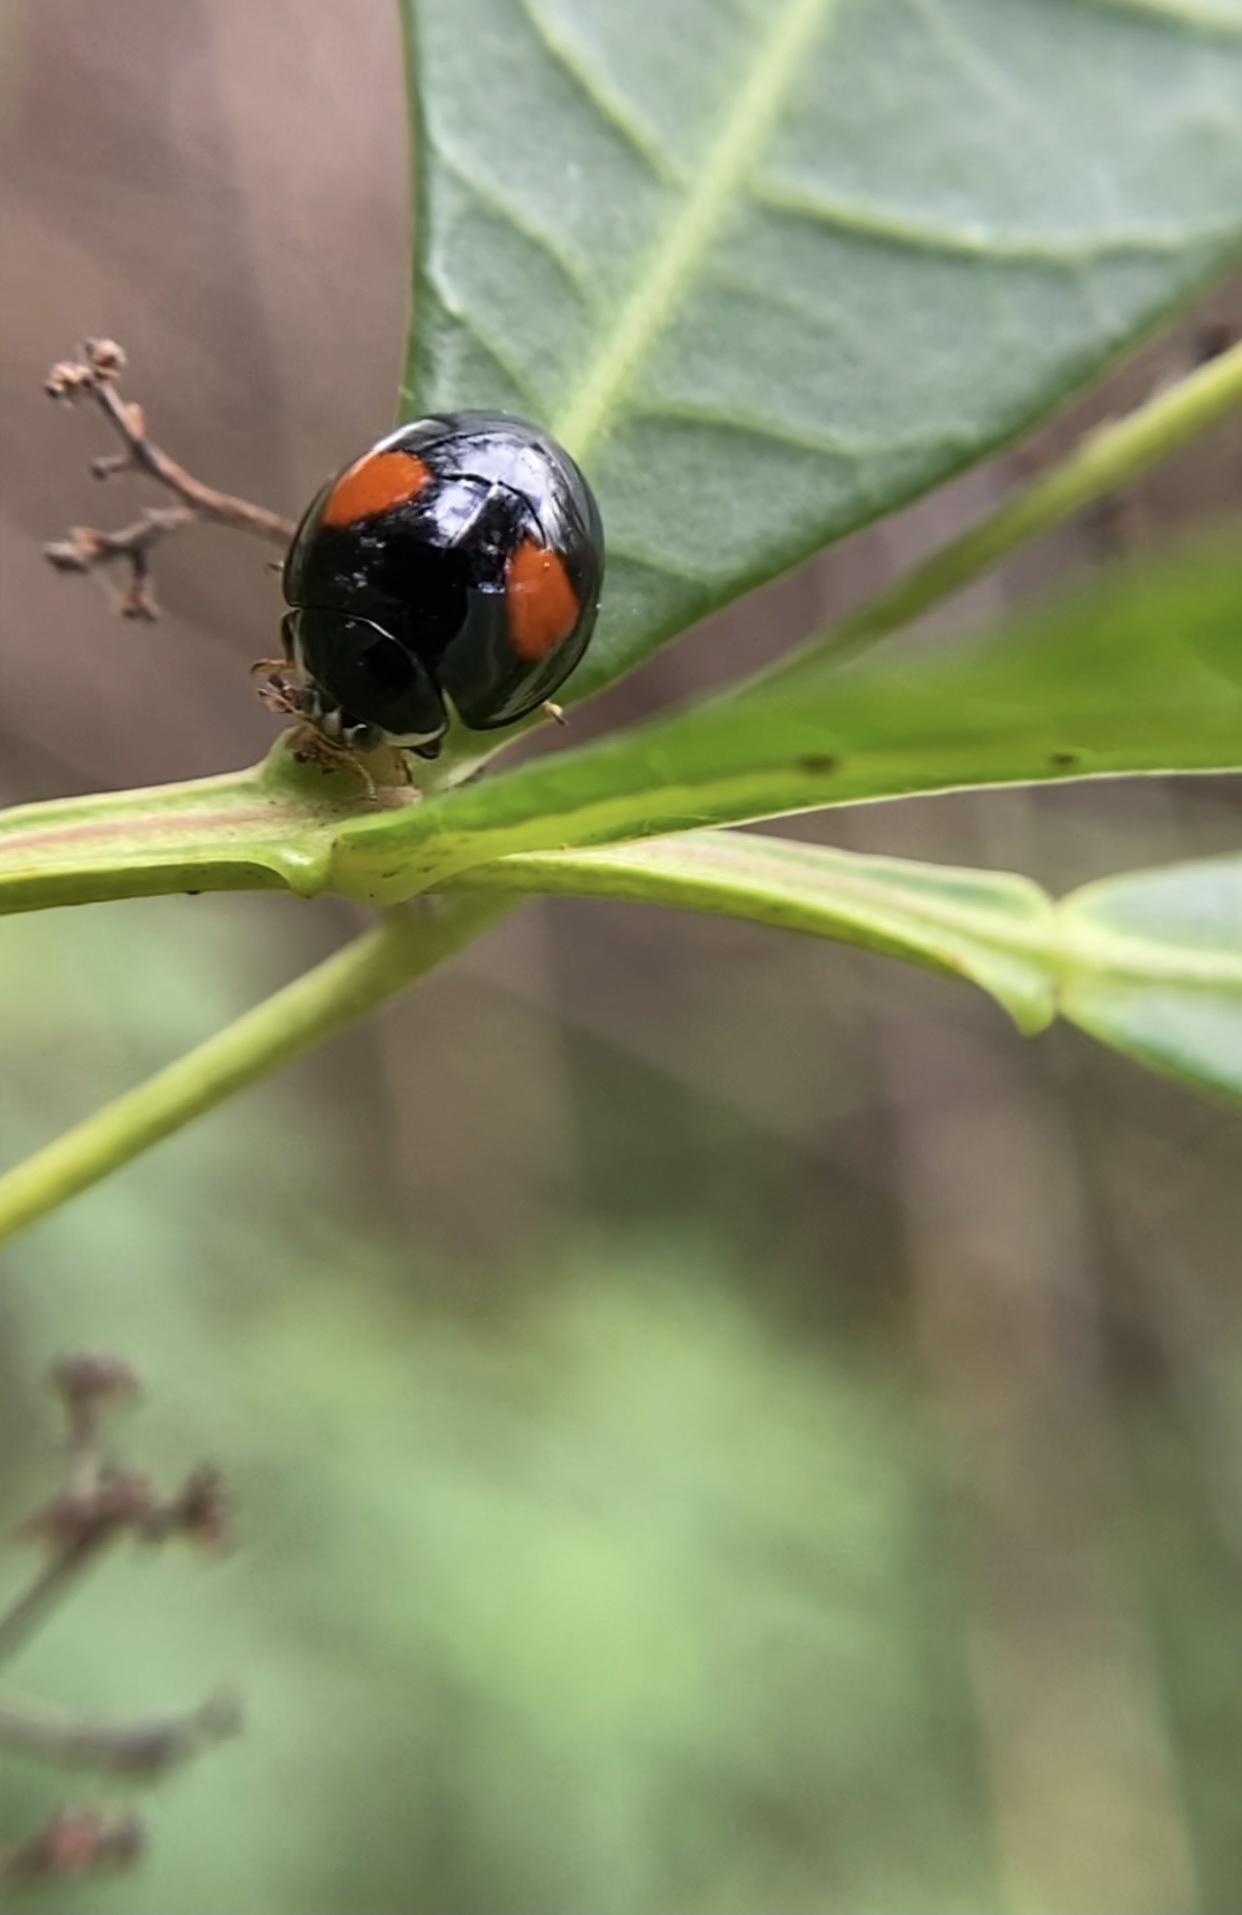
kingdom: Animalia
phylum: Arthropoda
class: Insecta
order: Coleoptera
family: Coccinellidae
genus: Olla
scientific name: Olla v-nigrum
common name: Ashy gray lady beetle
